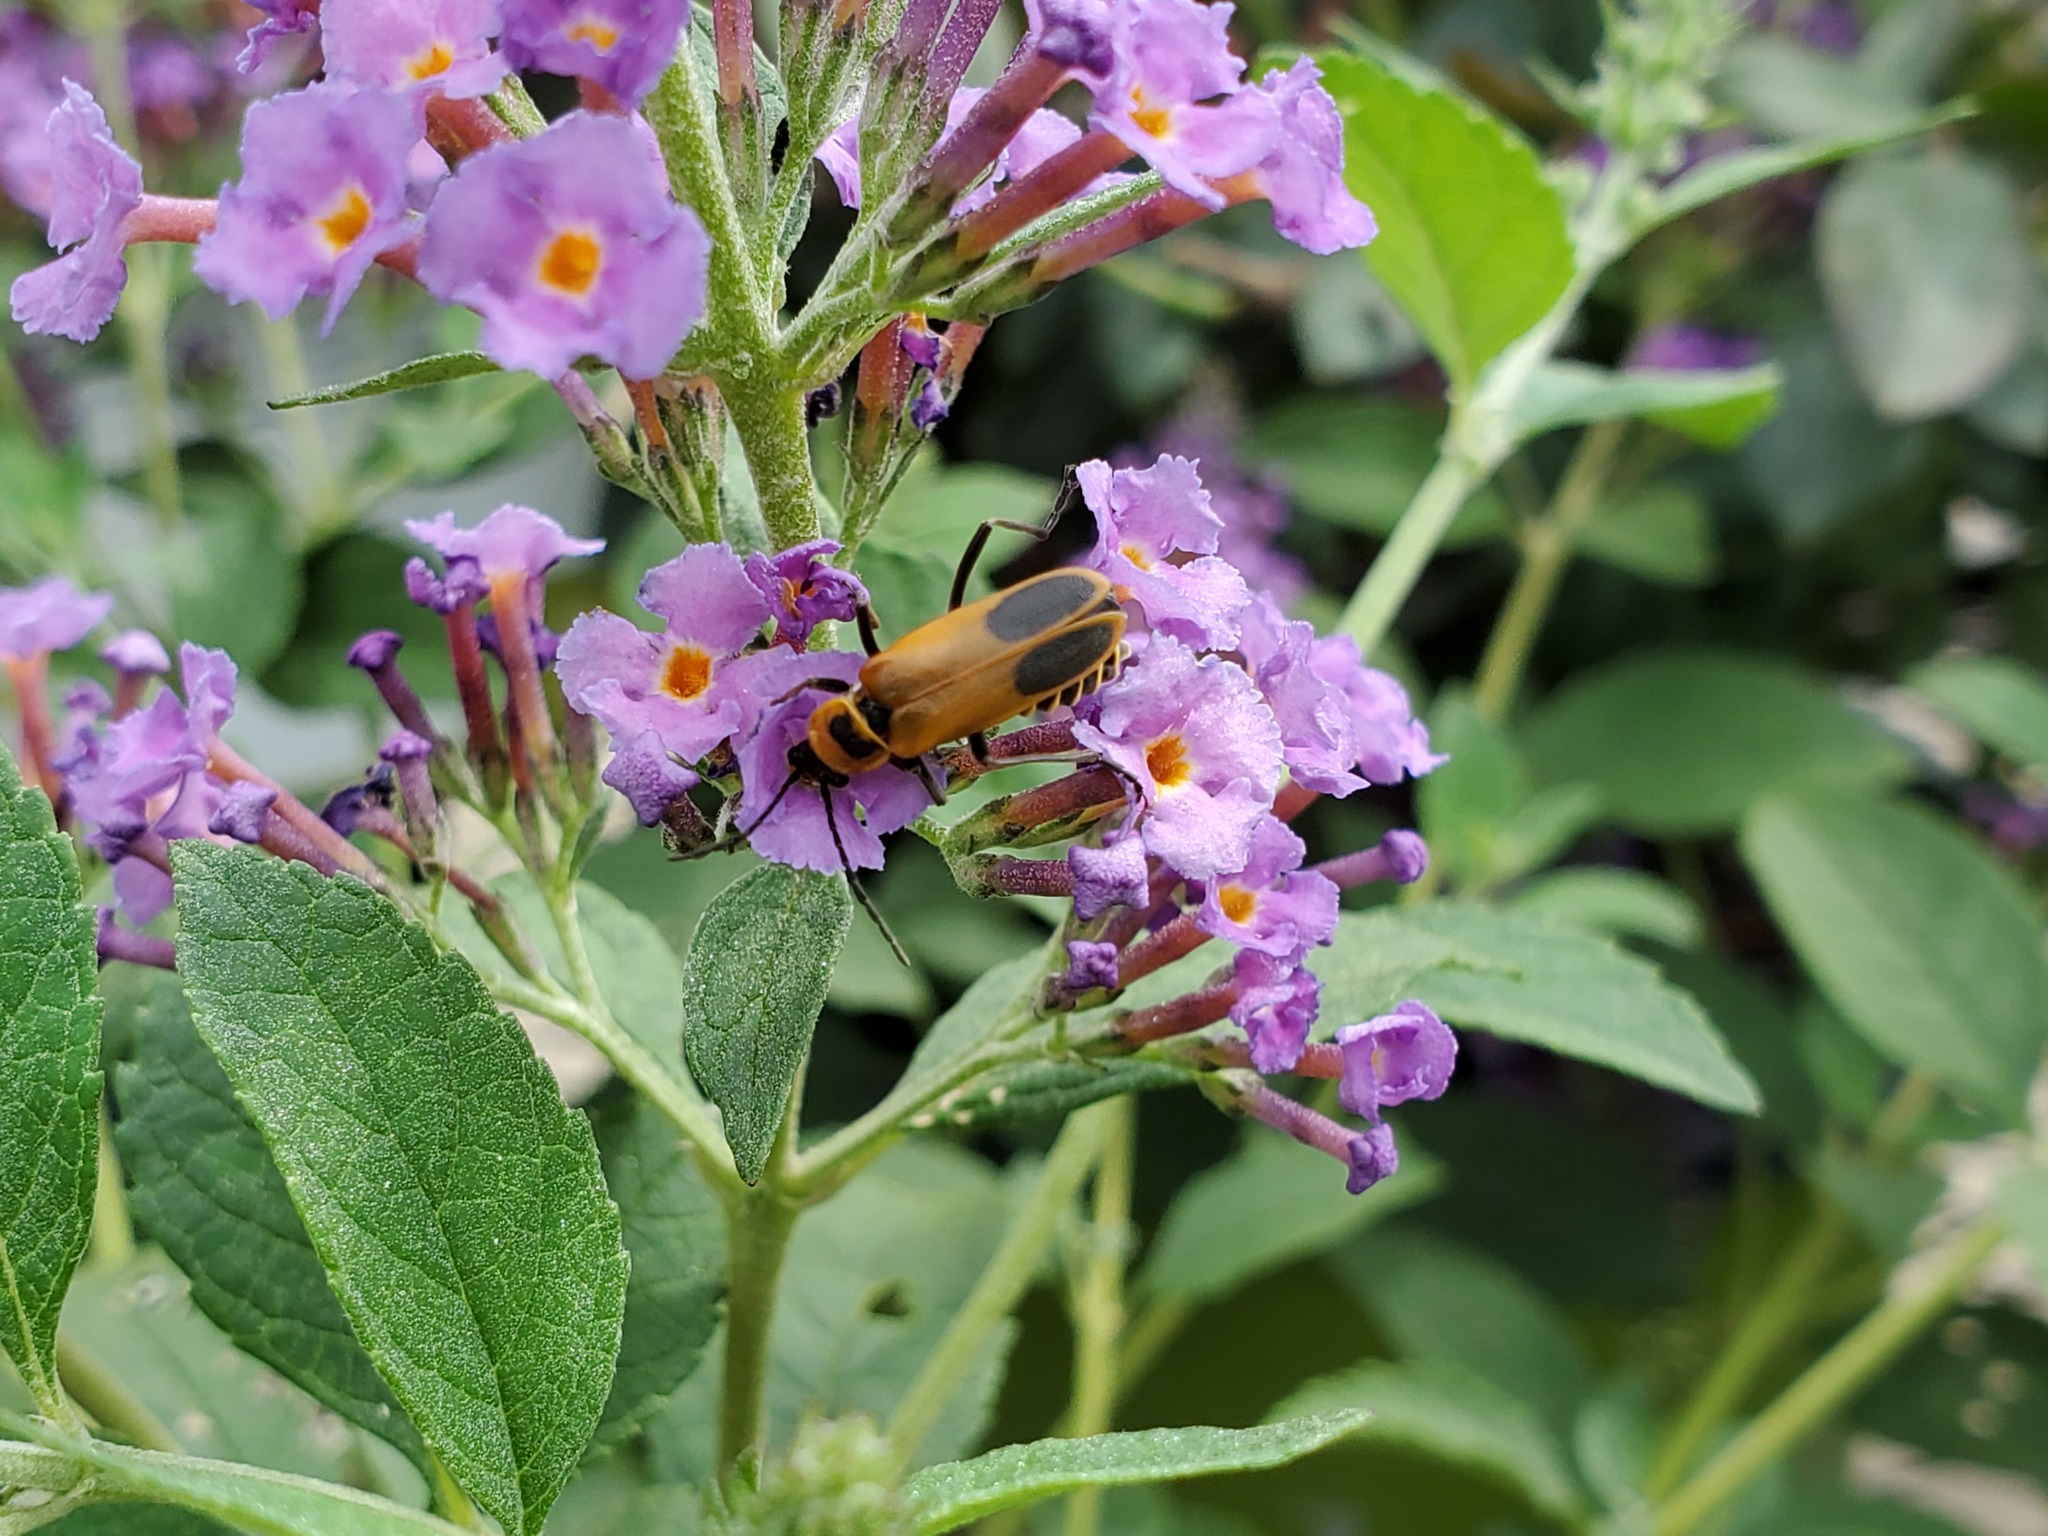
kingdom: Animalia
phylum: Arthropoda
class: Insecta
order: Coleoptera
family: Cantharidae
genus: Chauliognathus
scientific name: Chauliognathus pensylvanicus
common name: Goldenrod soldier beetle
